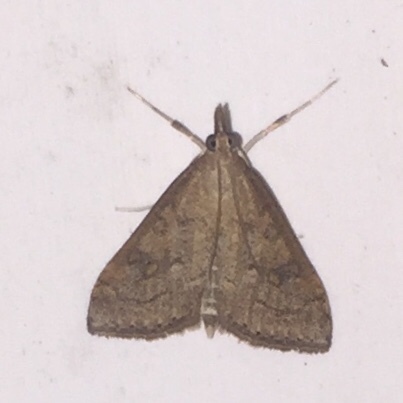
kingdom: Animalia
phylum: Arthropoda
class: Insecta
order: Lepidoptera
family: Crambidae
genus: Udea
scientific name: Udea rubigalis
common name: Celery leaftier moth
